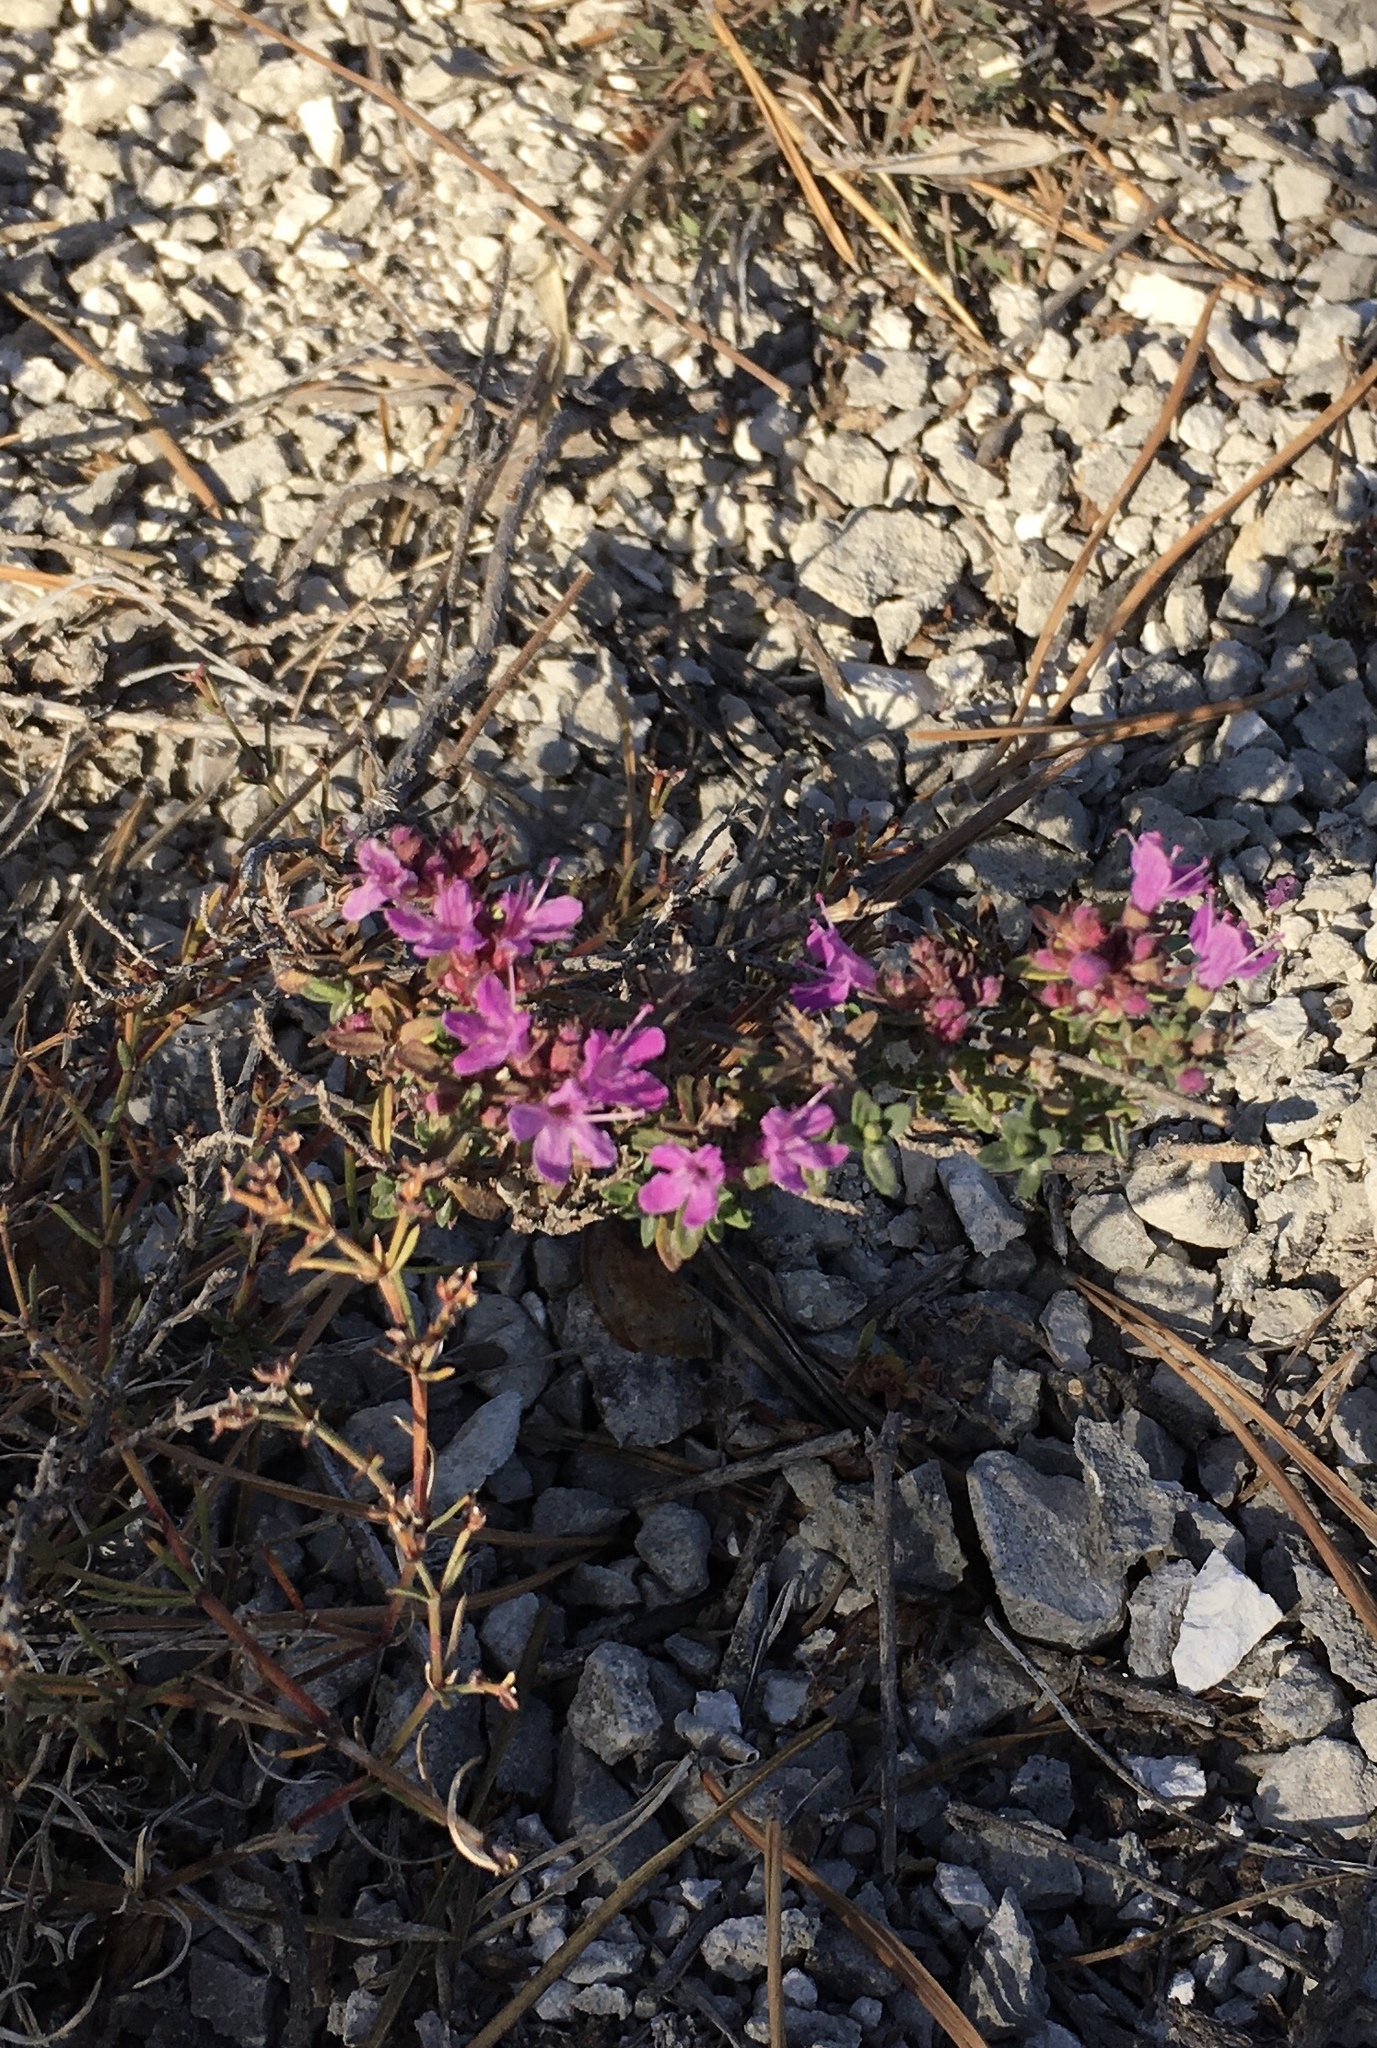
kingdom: Plantae
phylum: Tracheophyta
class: Magnoliopsida
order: Lamiales
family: Lamiaceae
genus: Thymus
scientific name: Thymus cimicinus
